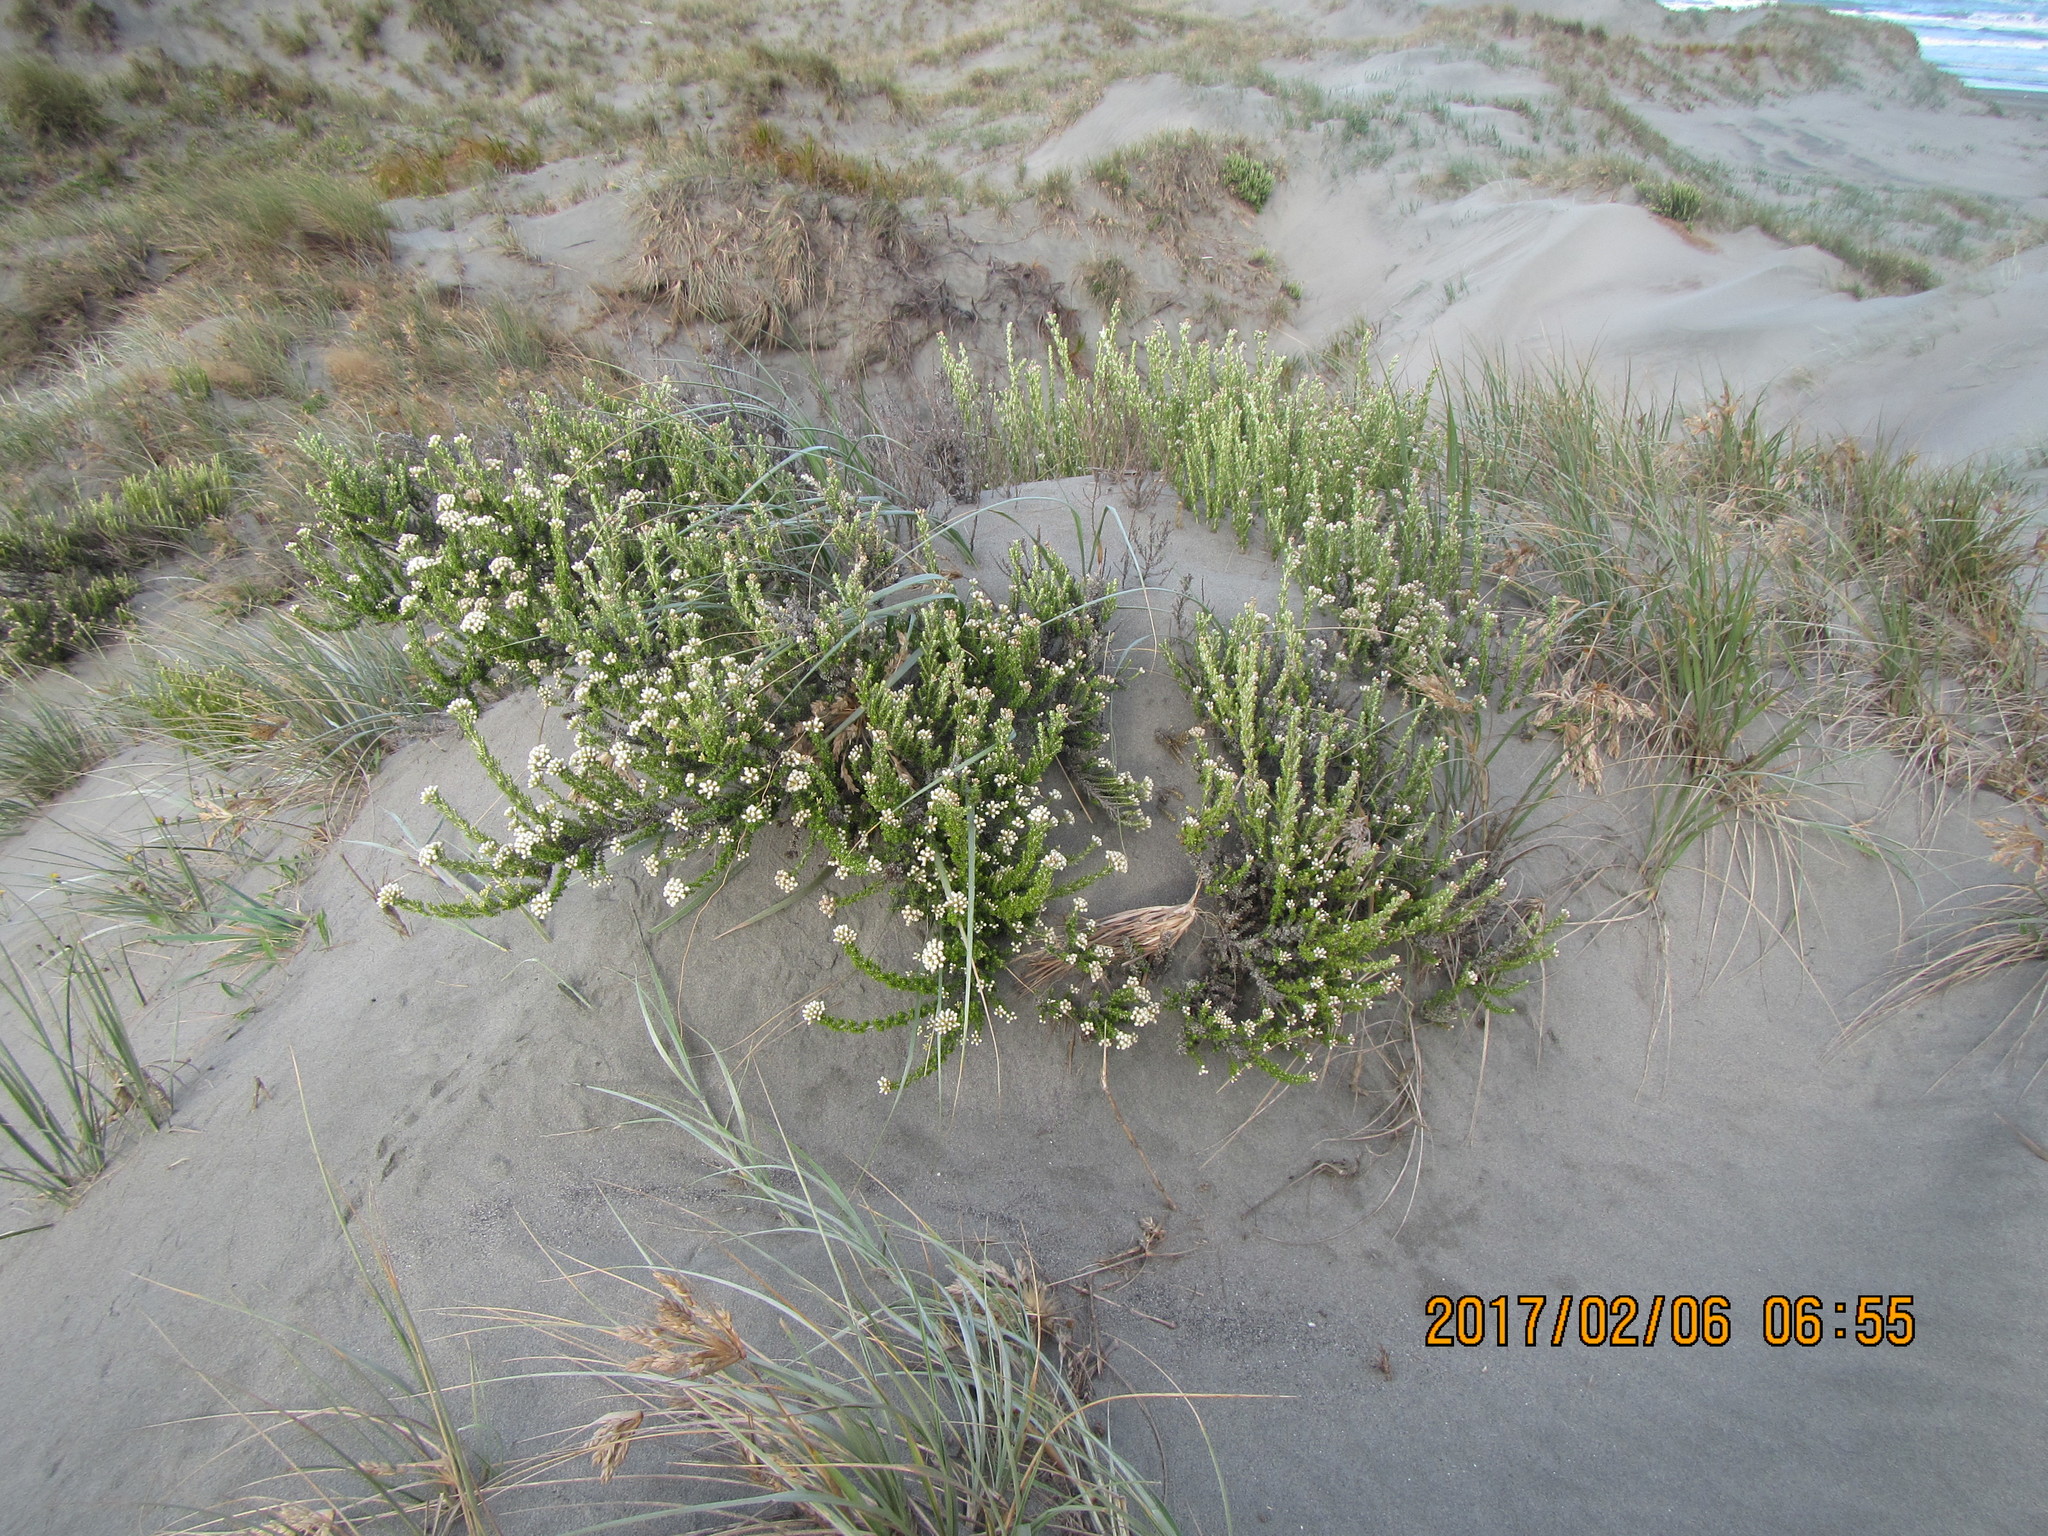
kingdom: Plantae
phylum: Tracheophyta
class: Magnoliopsida
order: Asterales
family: Asteraceae
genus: Ozothamnus
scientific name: Ozothamnus leptophyllus
